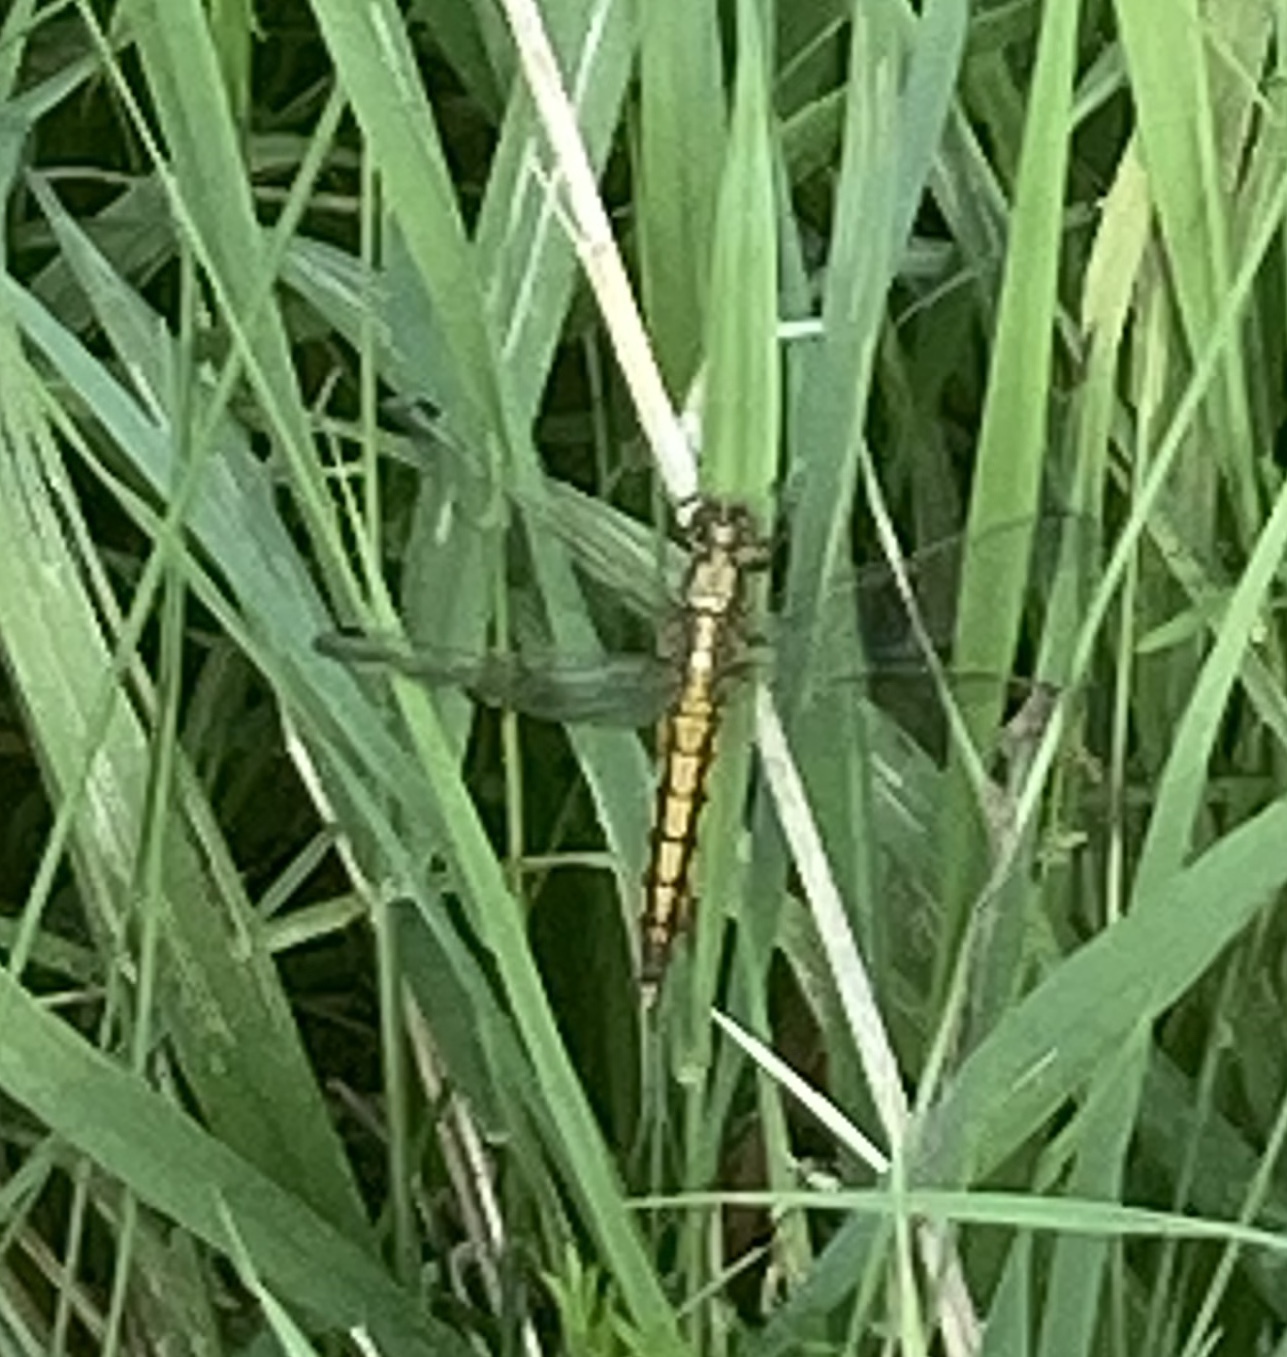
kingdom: Animalia
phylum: Arthropoda
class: Insecta
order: Odonata
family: Libellulidae
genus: Orthetrum
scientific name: Orthetrum cancellatum
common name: Black-tailed skimmer
